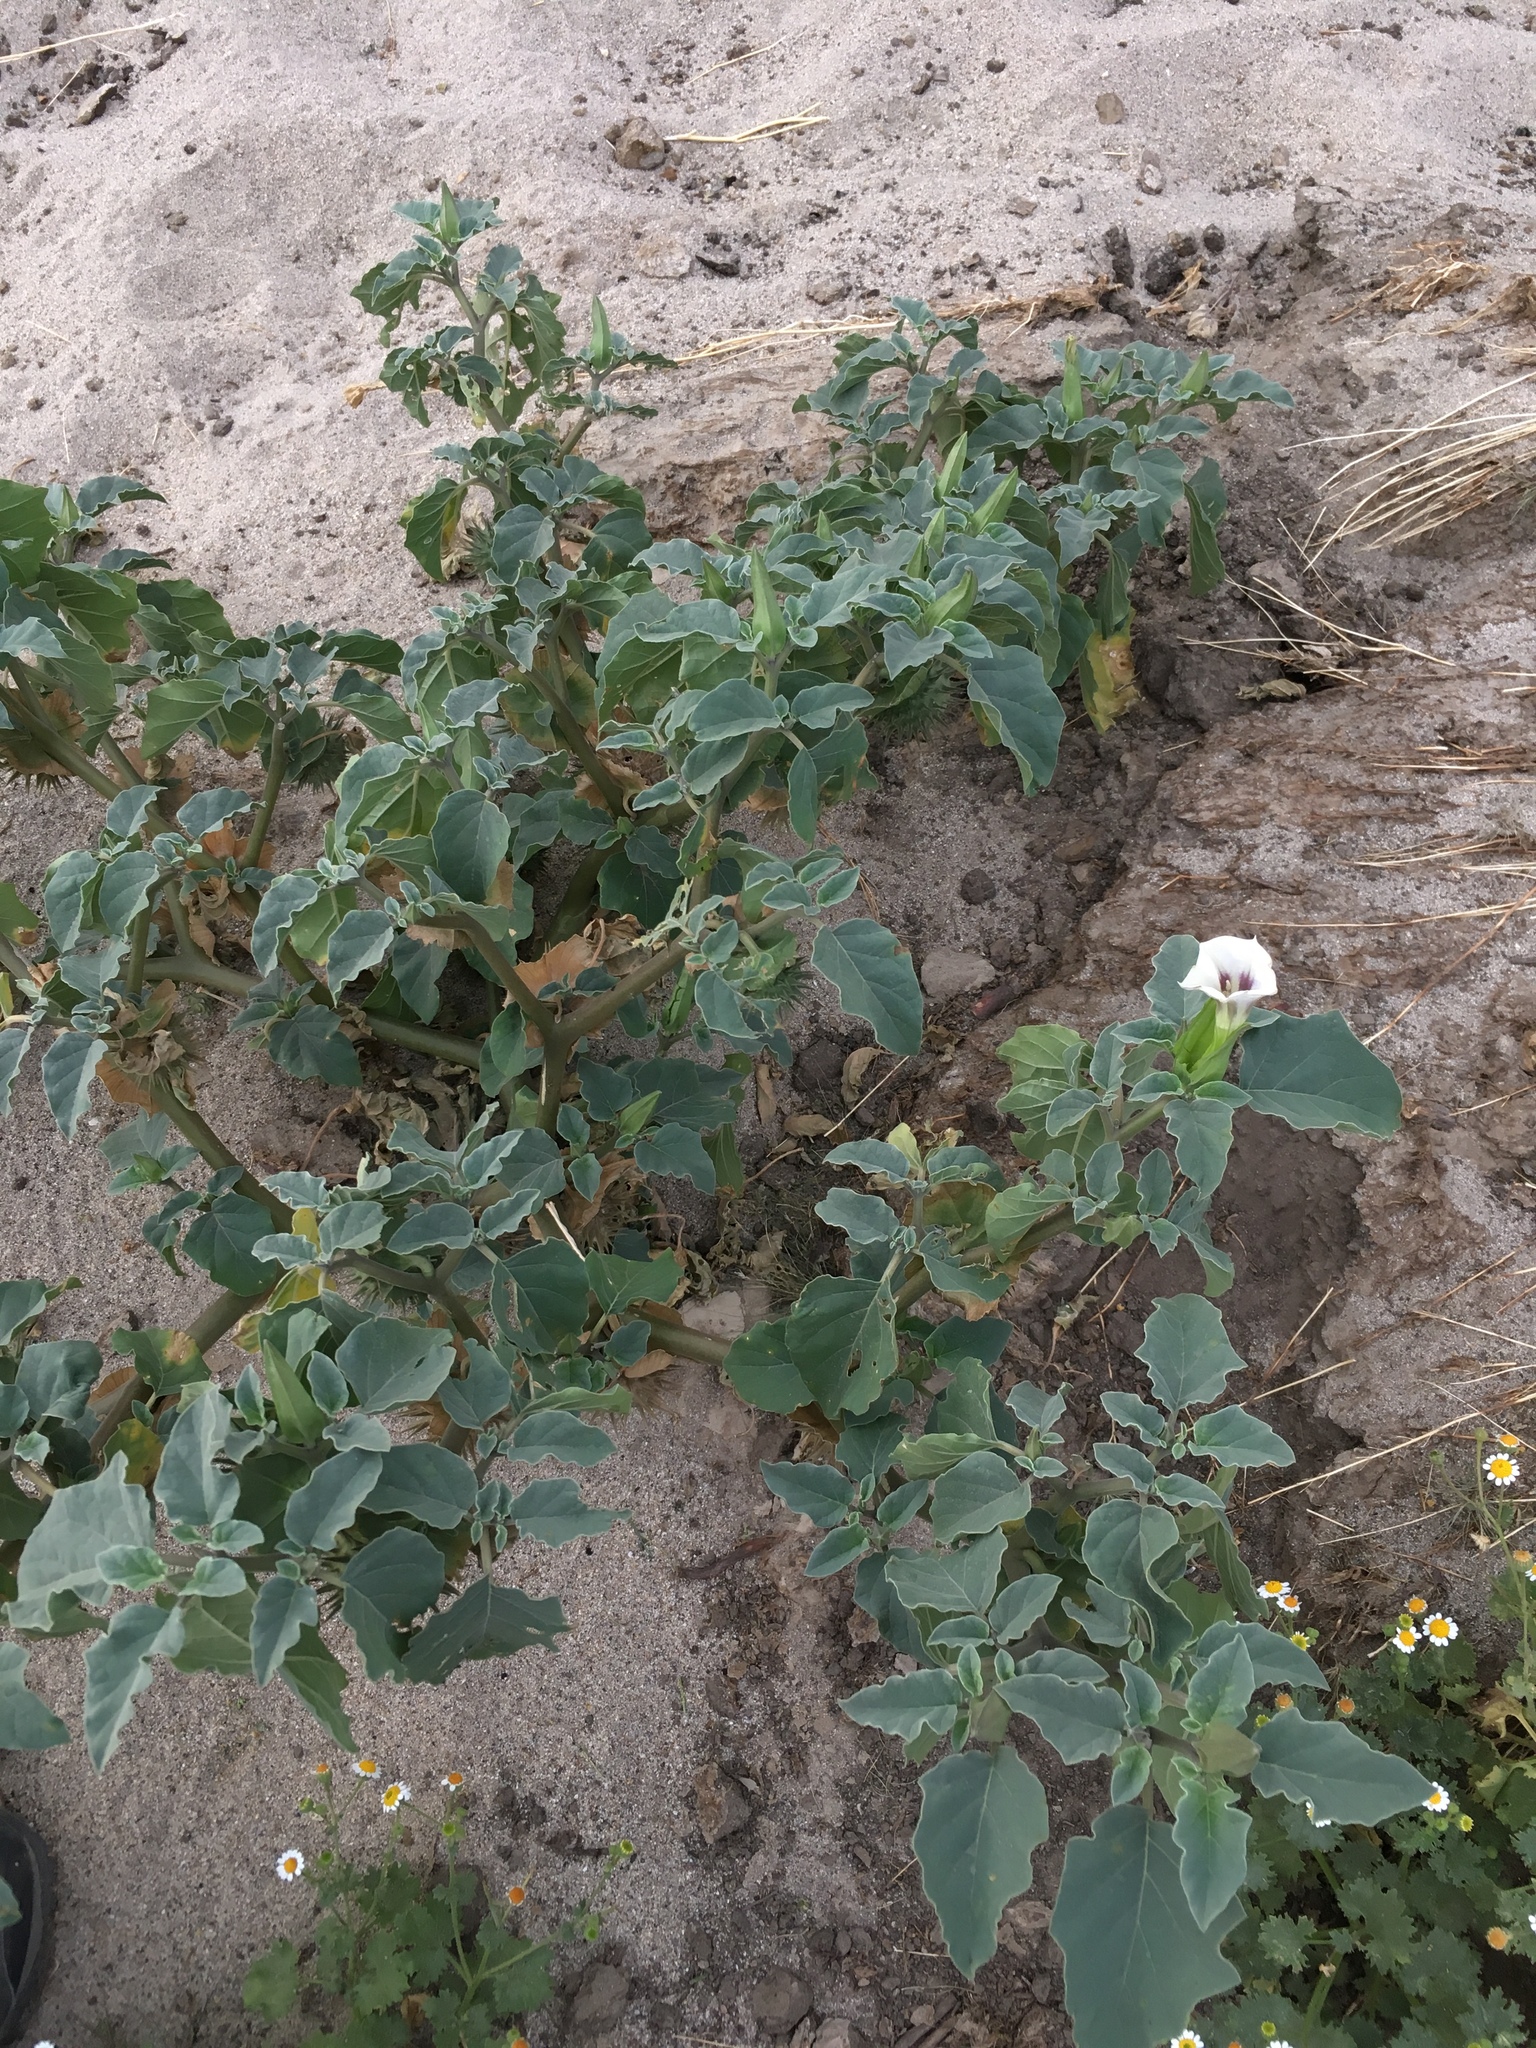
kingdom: Plantae
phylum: Tracheophyta
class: Magnoliopsida
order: Solanales
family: Solanaceae
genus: Datura
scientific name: Datura discolor
